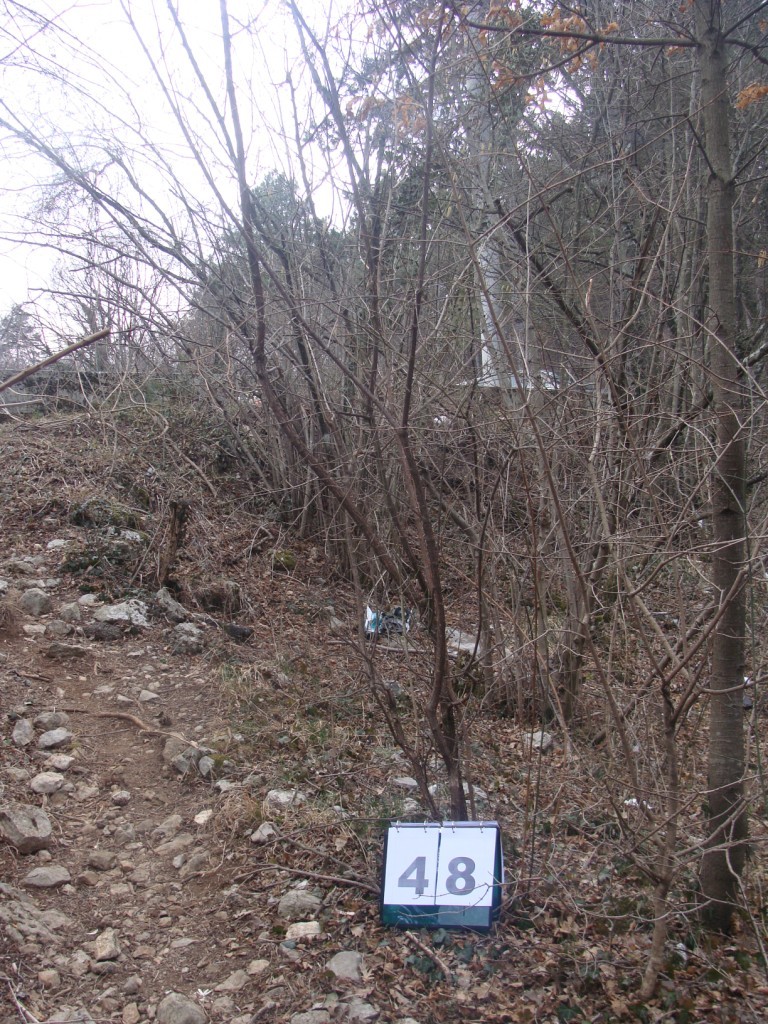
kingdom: Plantae
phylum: Tracheophyta
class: Magnoliopsida
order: Cornales
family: Cornaceae
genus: Cornus
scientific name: Cornus mas
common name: Cornelian-cherry
